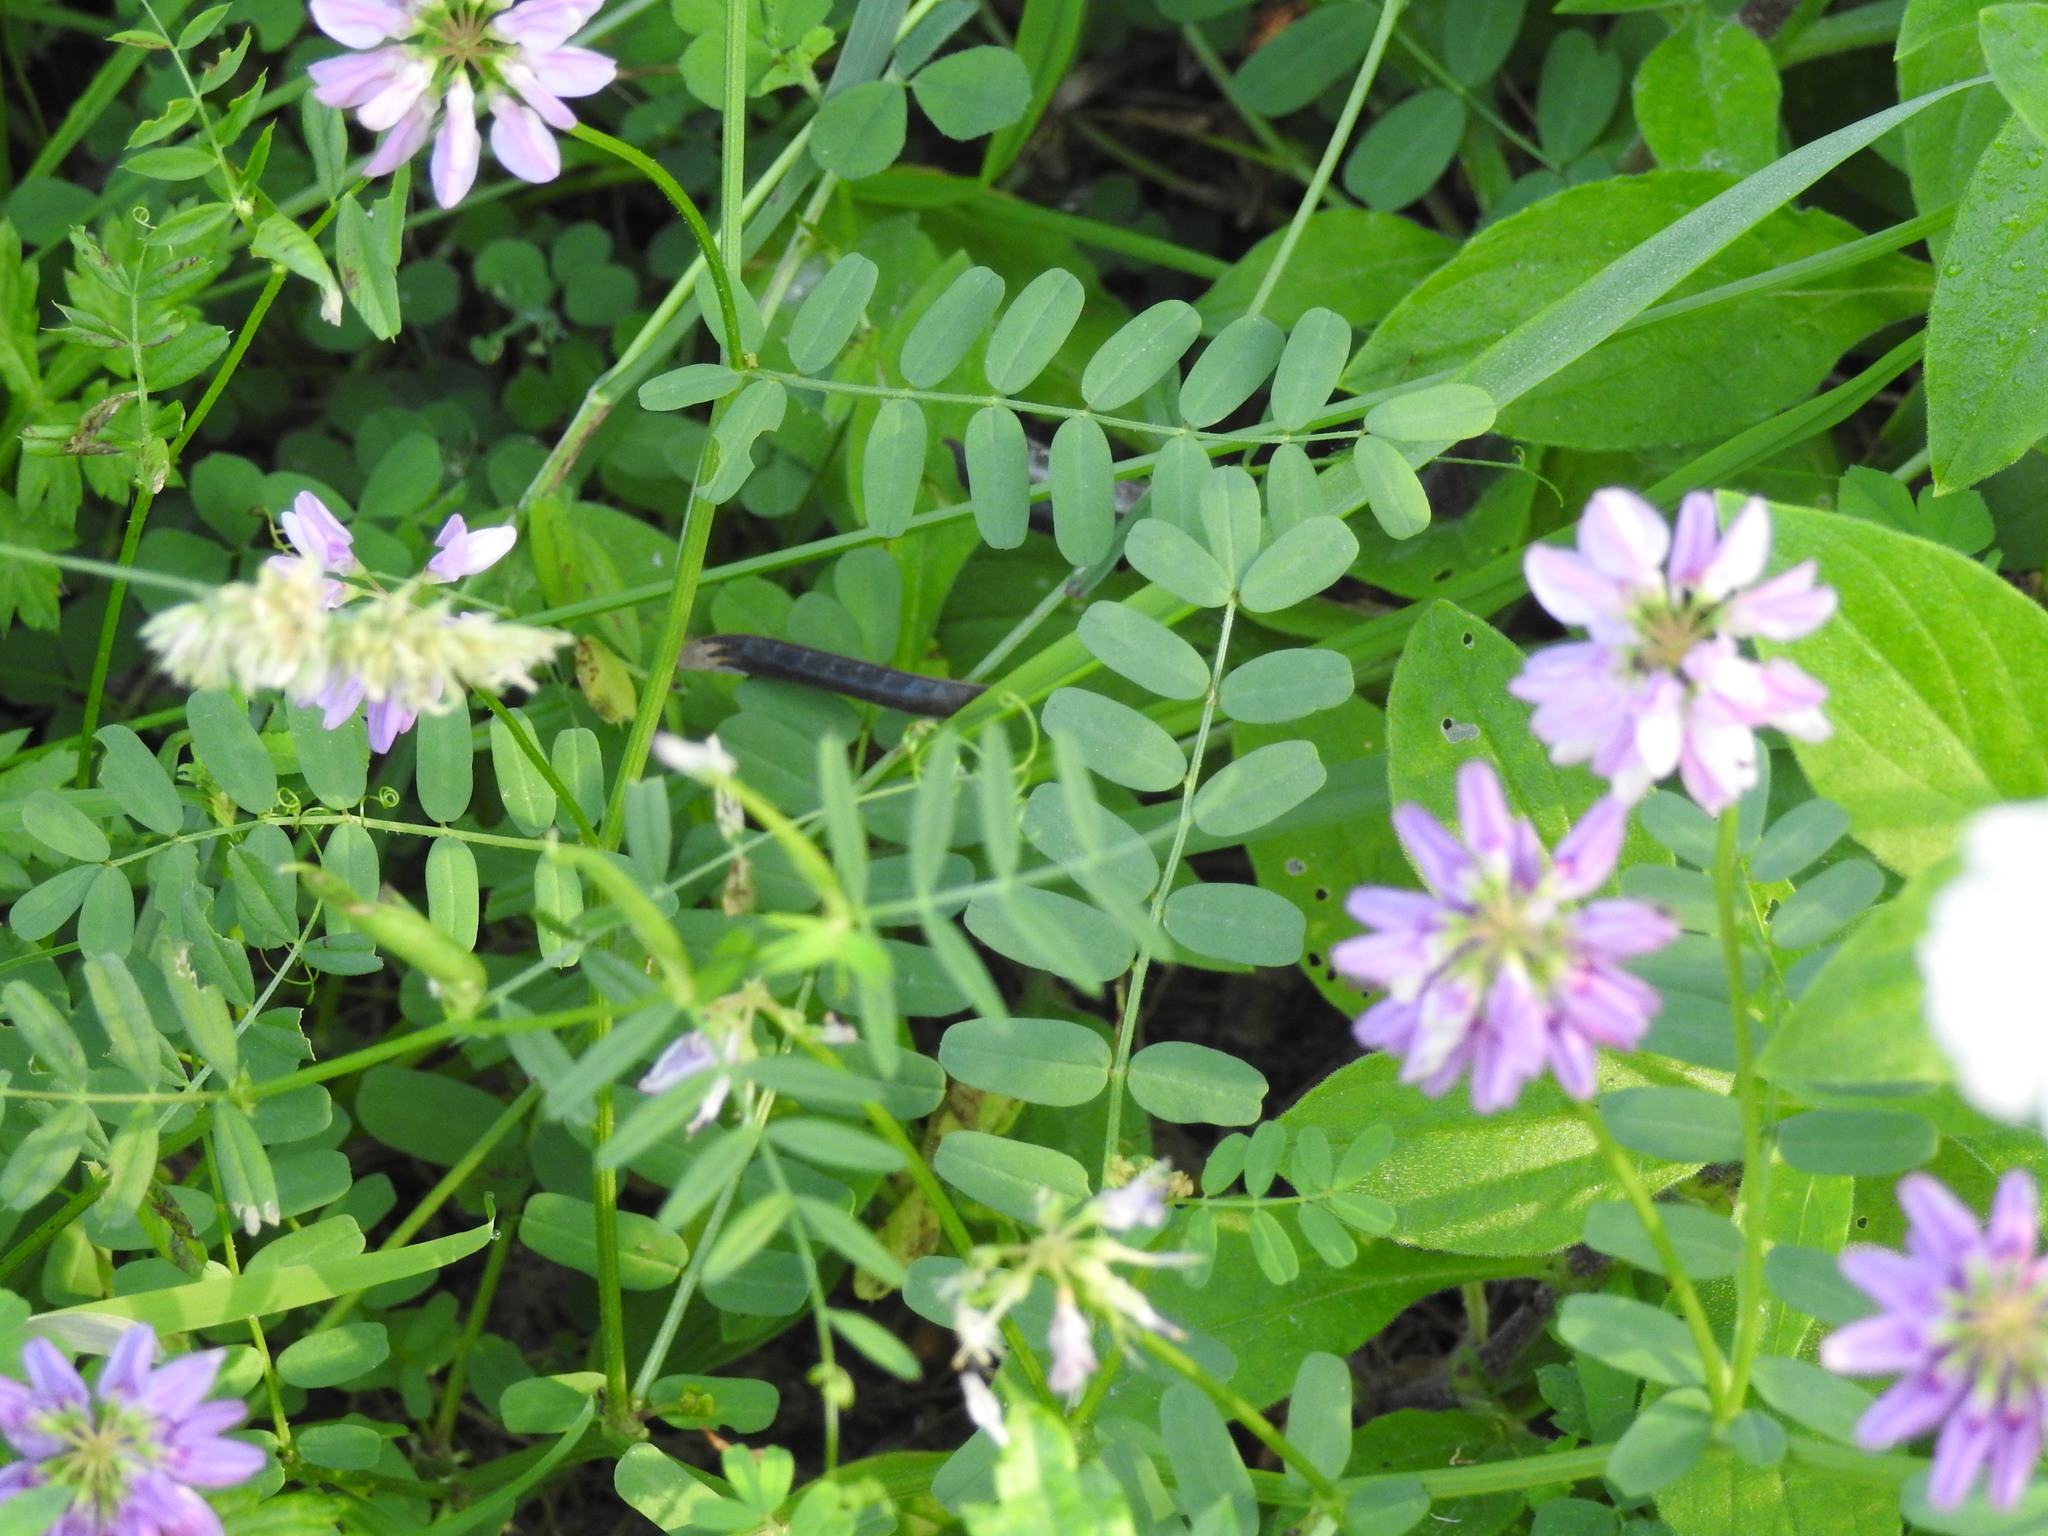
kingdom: Plantae
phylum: Tracheophyta
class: Magnoliopsida
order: Fabales
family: Fabaceae
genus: Coronilla
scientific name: Coronilla varia
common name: Crownvetch
